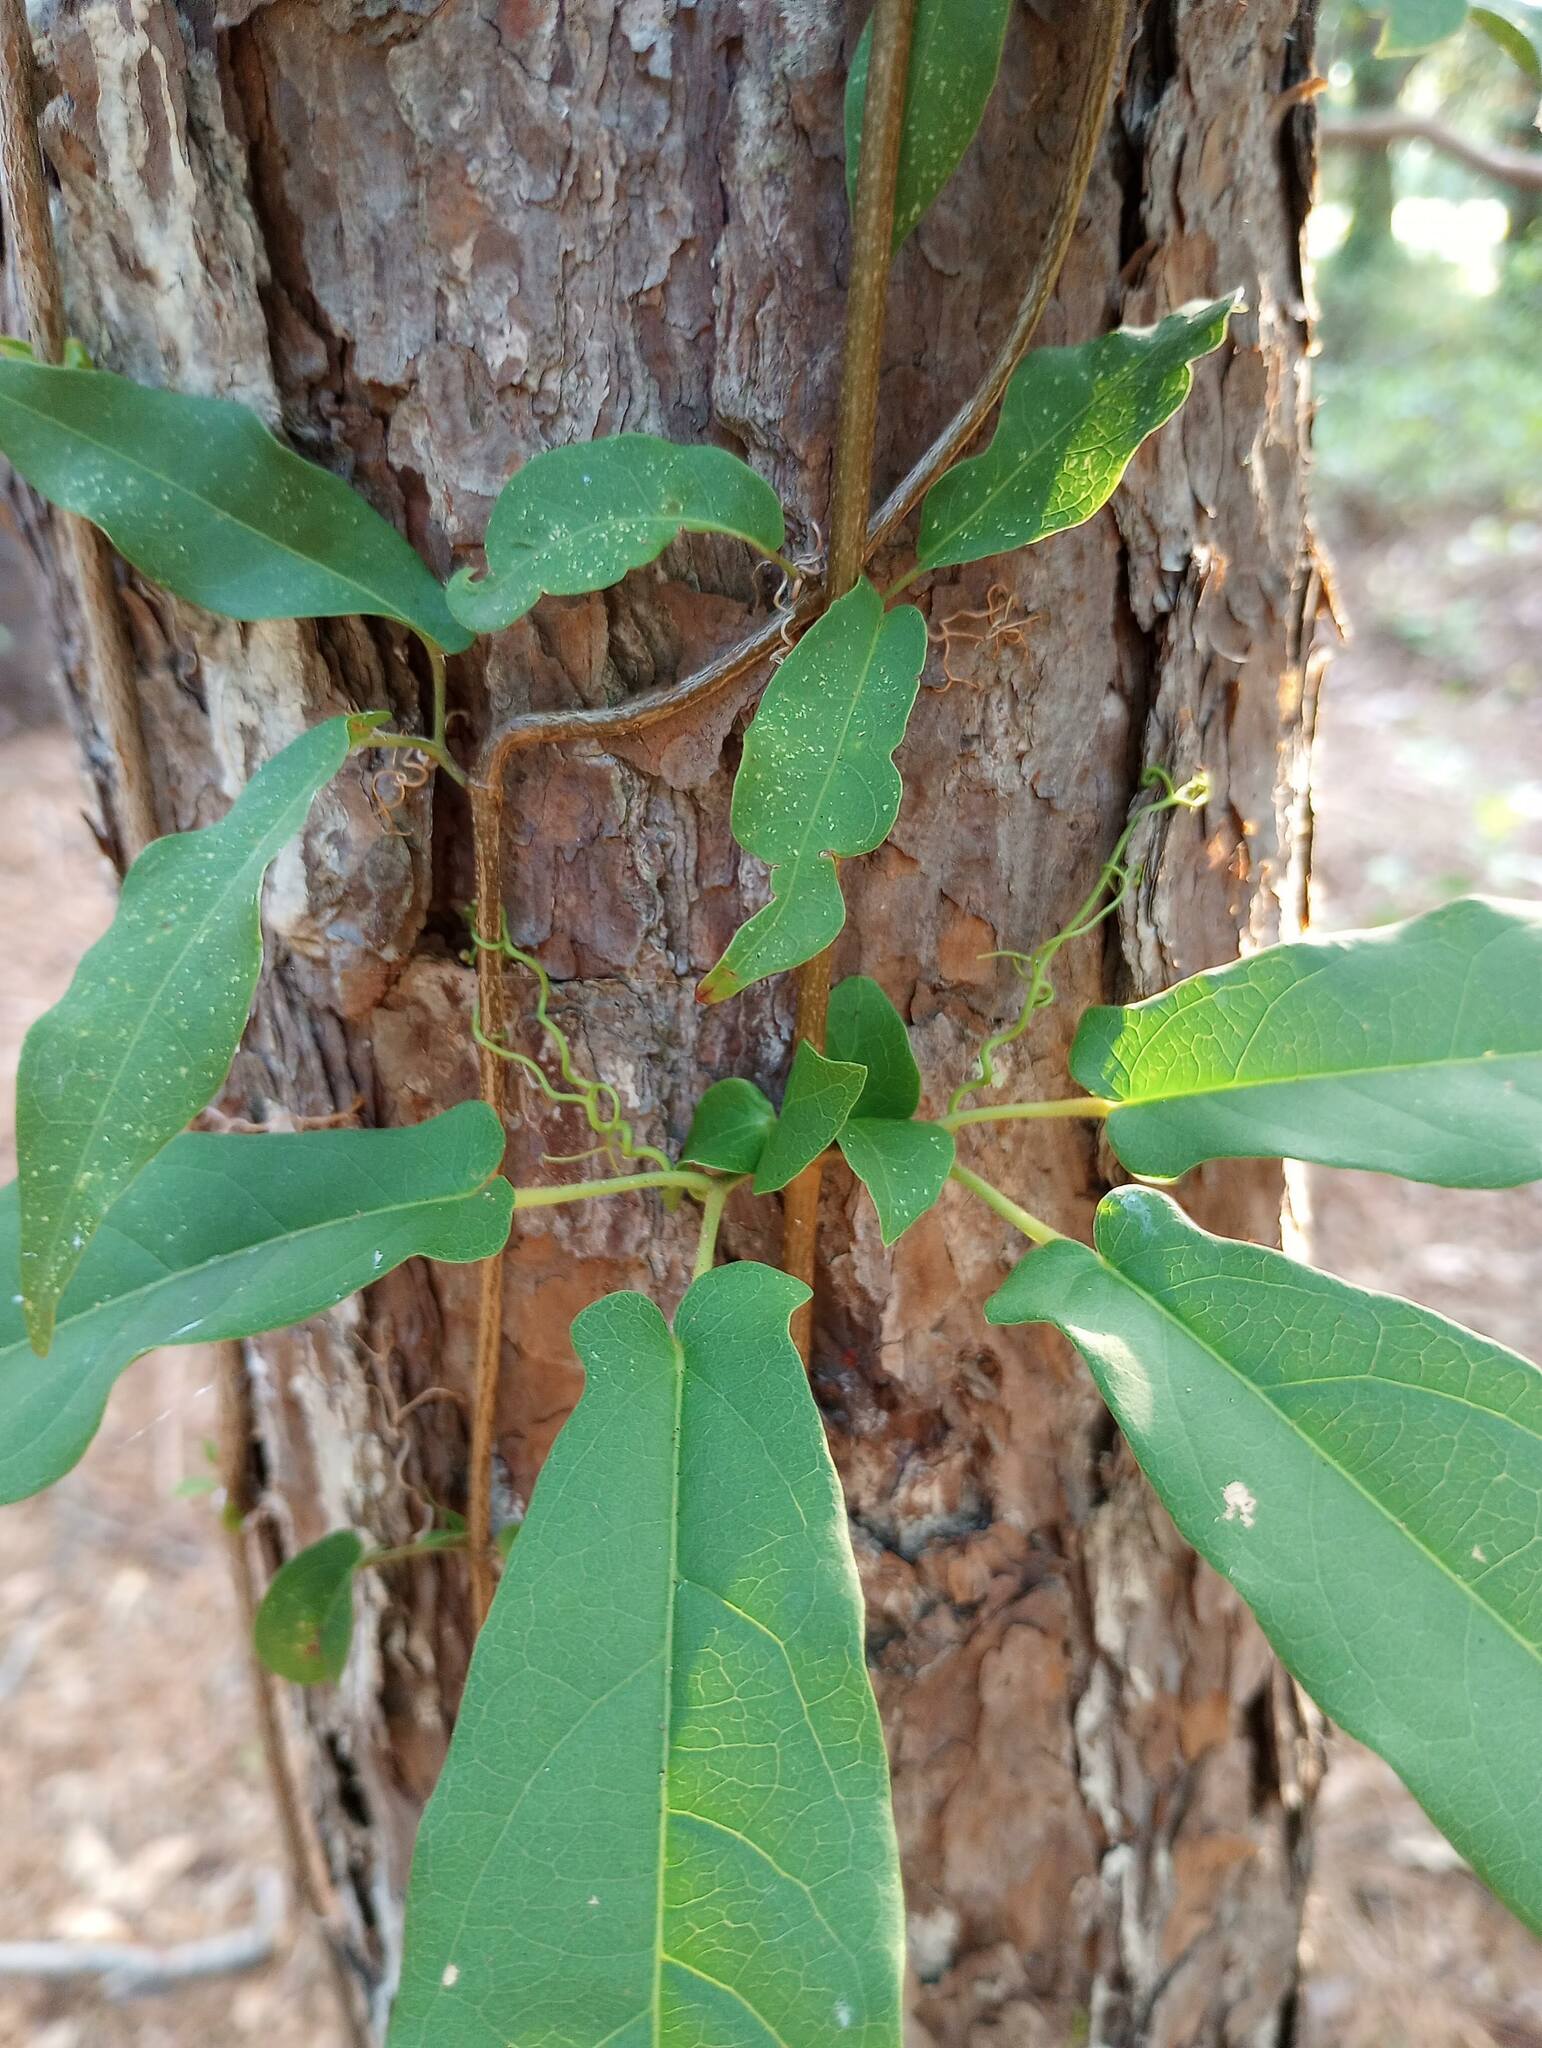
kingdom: Plantae
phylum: Tracheophyta
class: Magnoliopsida
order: Lamiales
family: Bignoniaceae
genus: Bignonia
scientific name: Bignonia capreolata
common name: Crossvine
